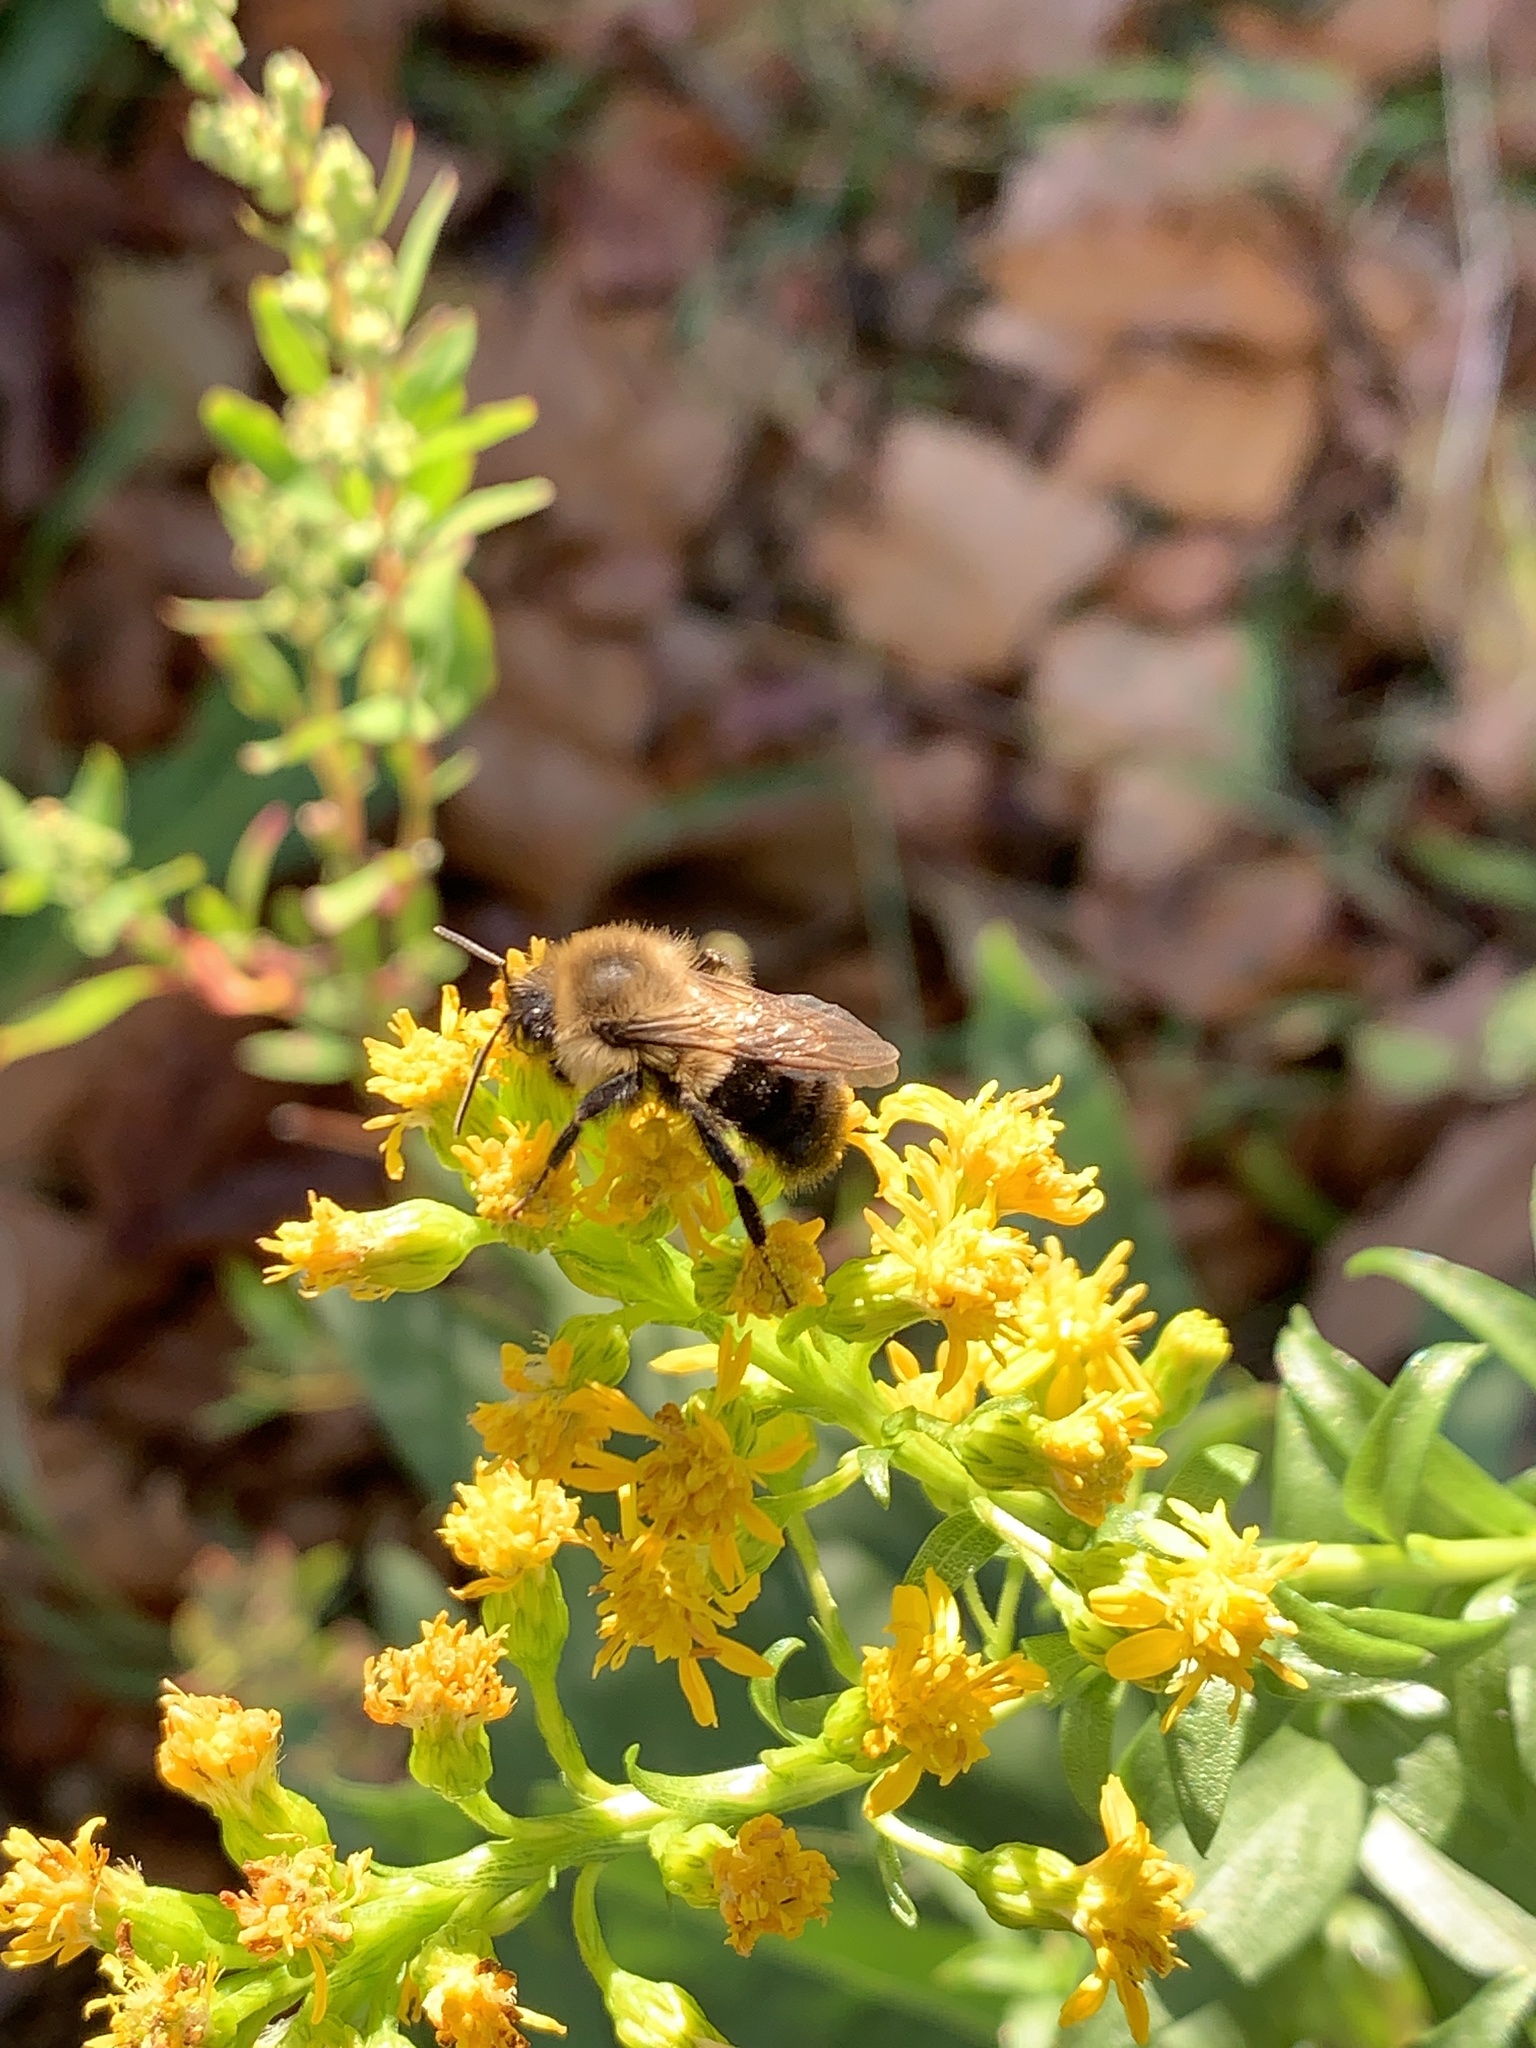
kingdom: Animalia
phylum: Arthropoda
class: Insecta
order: Hymenoptera
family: Apidae
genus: Bombus
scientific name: Bombus impatiens
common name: Common eastern bumble bee
